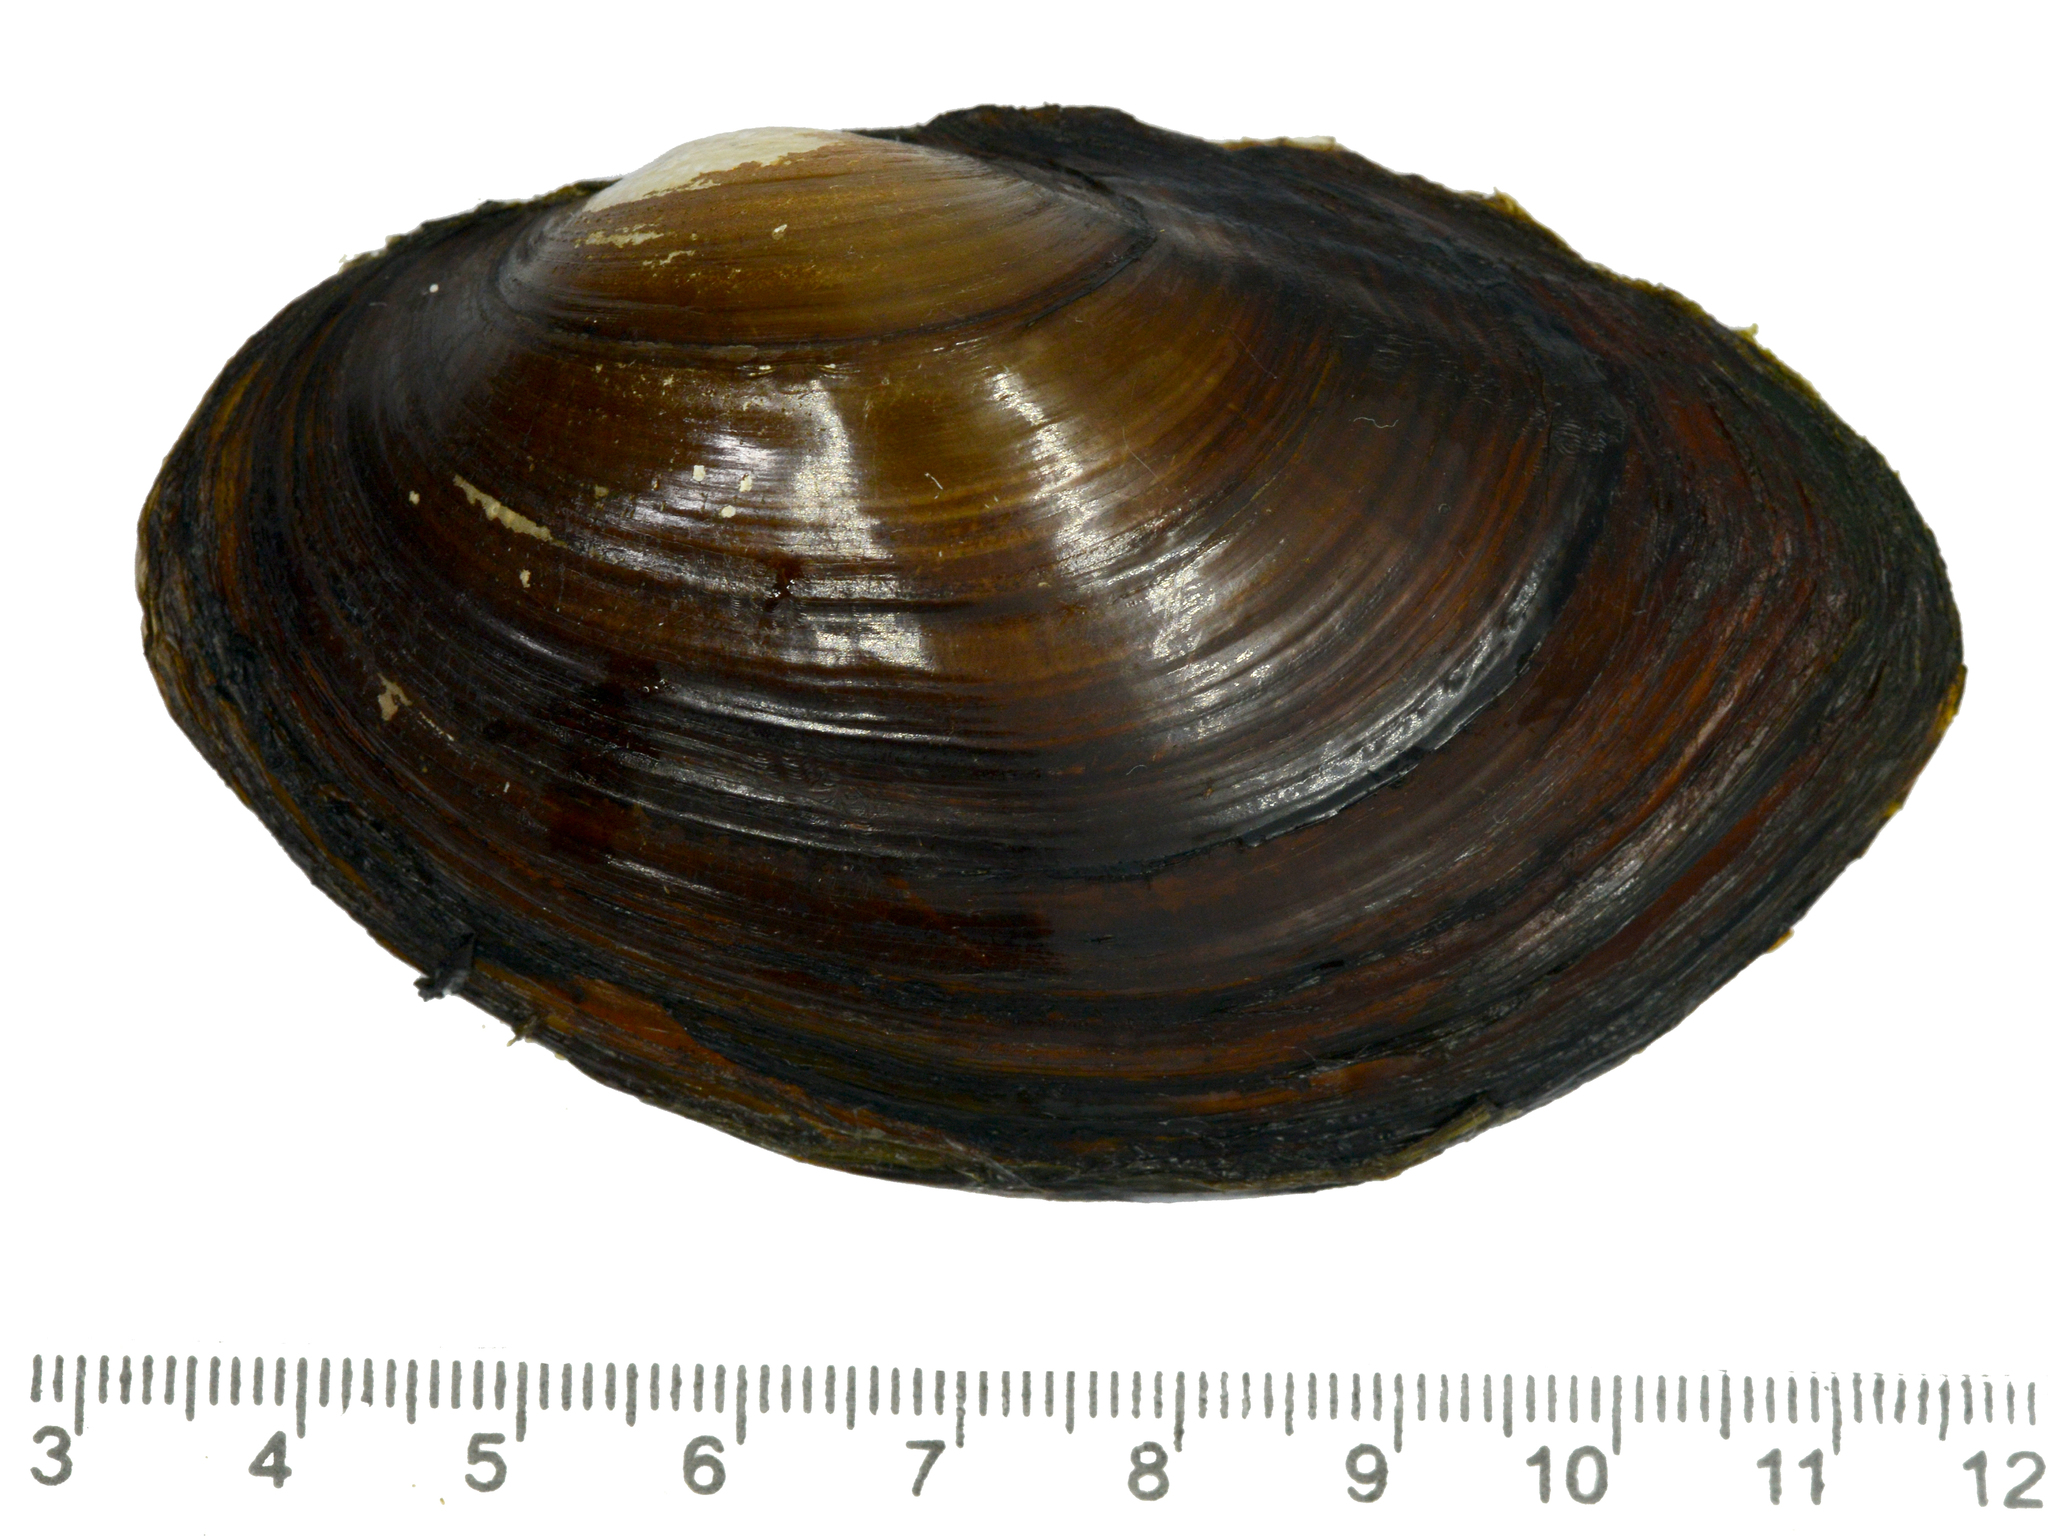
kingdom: Animalia
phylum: Mollusca
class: Bivalvia
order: Unionida
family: Unionidae
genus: Sinanodonta
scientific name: Sinanodonta schrenkii
